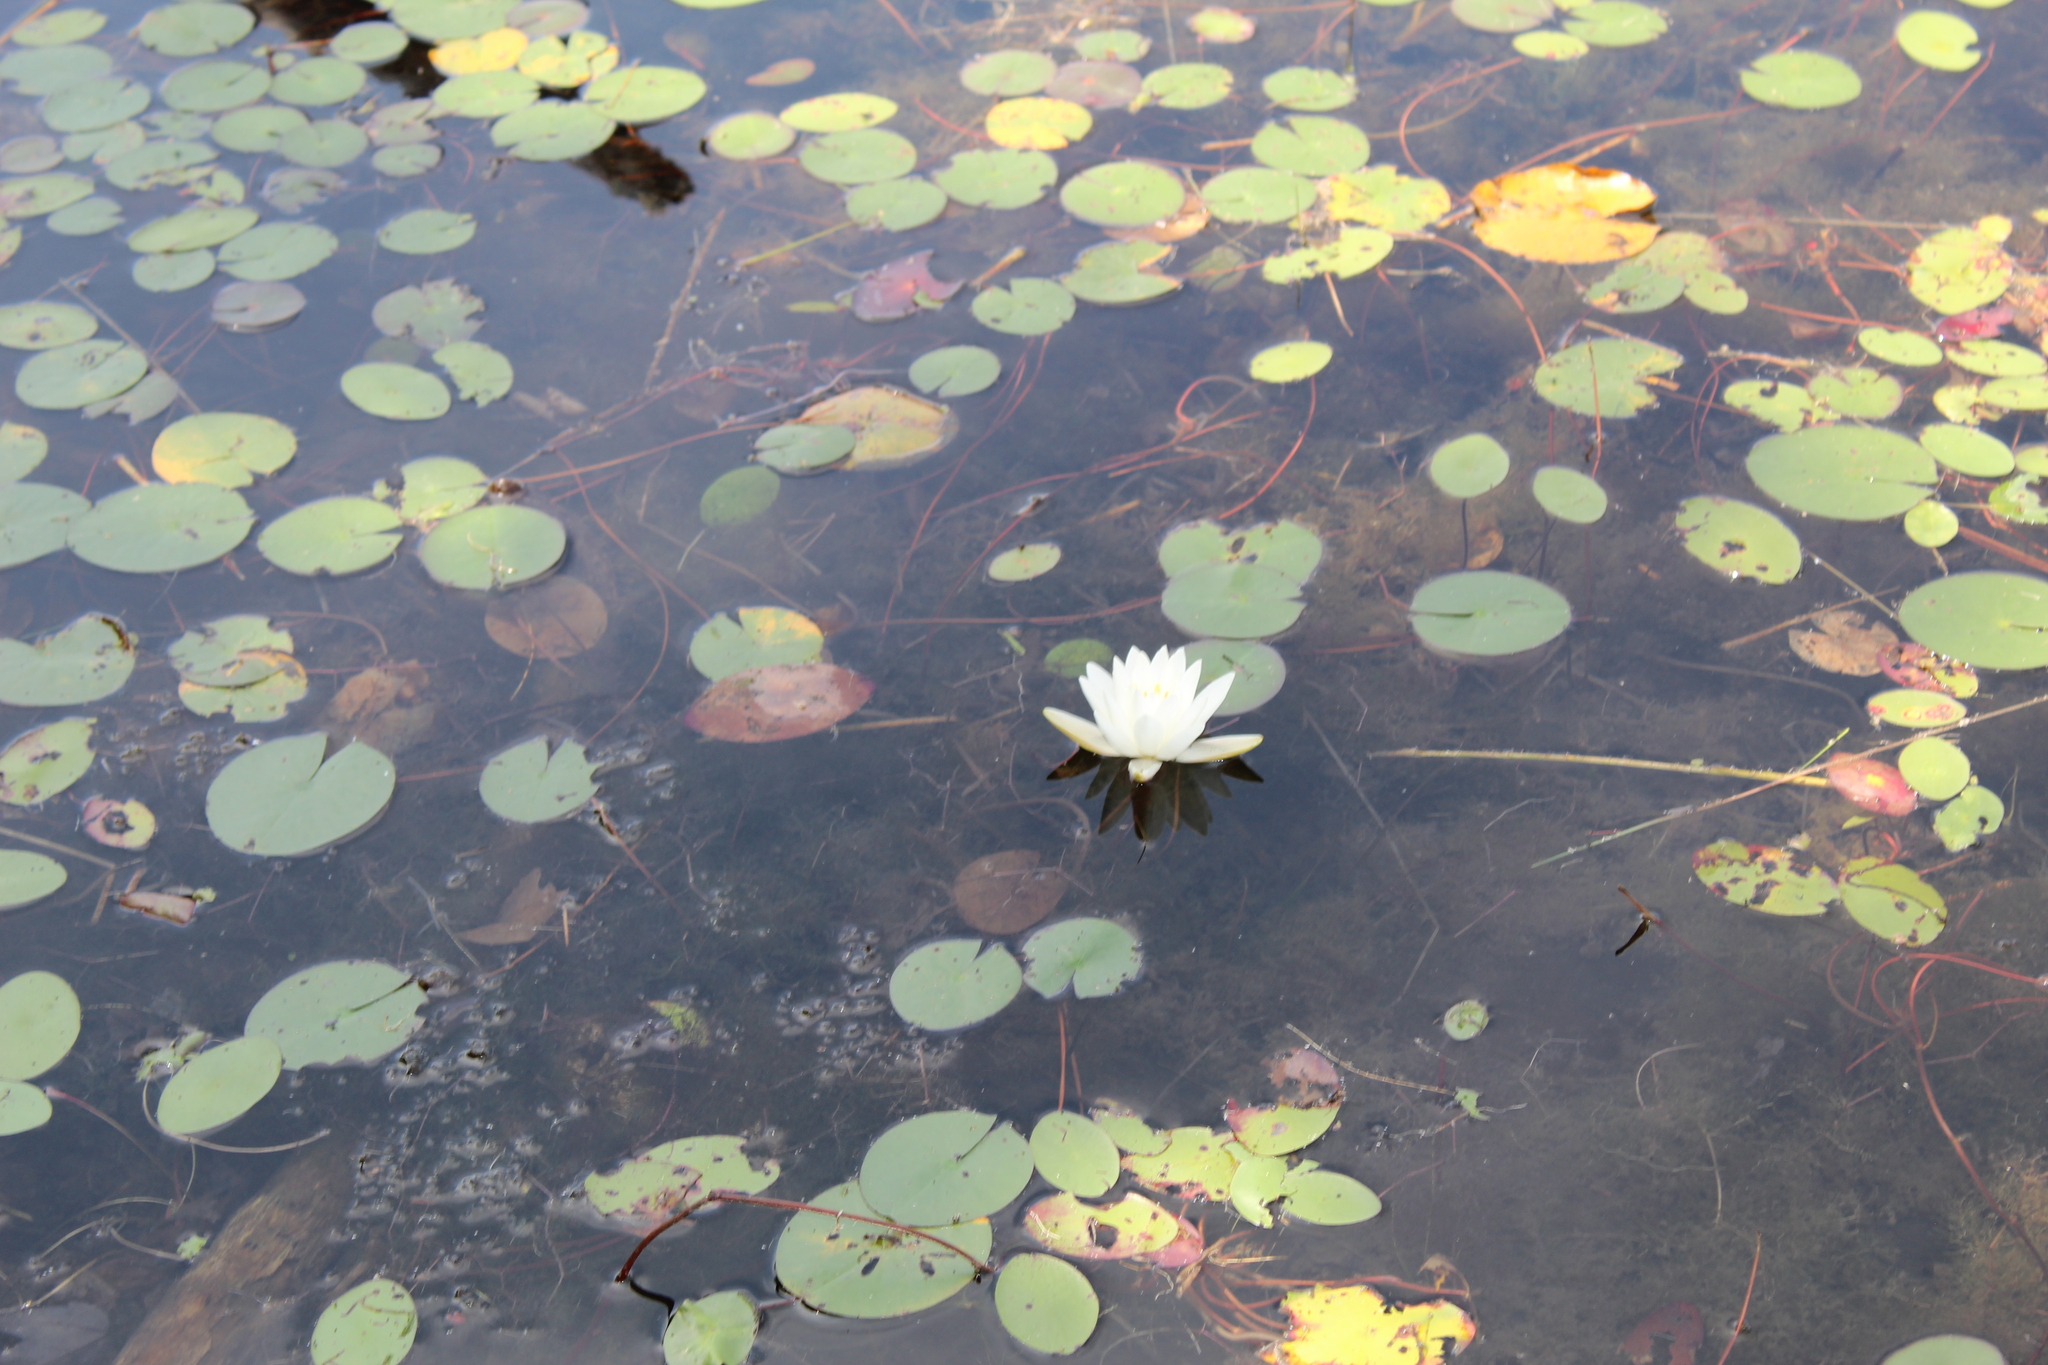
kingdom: Plantae
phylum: Tracheophyta
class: Magnoliopsida
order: Nymphaeales
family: Nymphaeaceae
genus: Nymphaea
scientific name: Nymphaea odorata
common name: Fragrant water-lily
